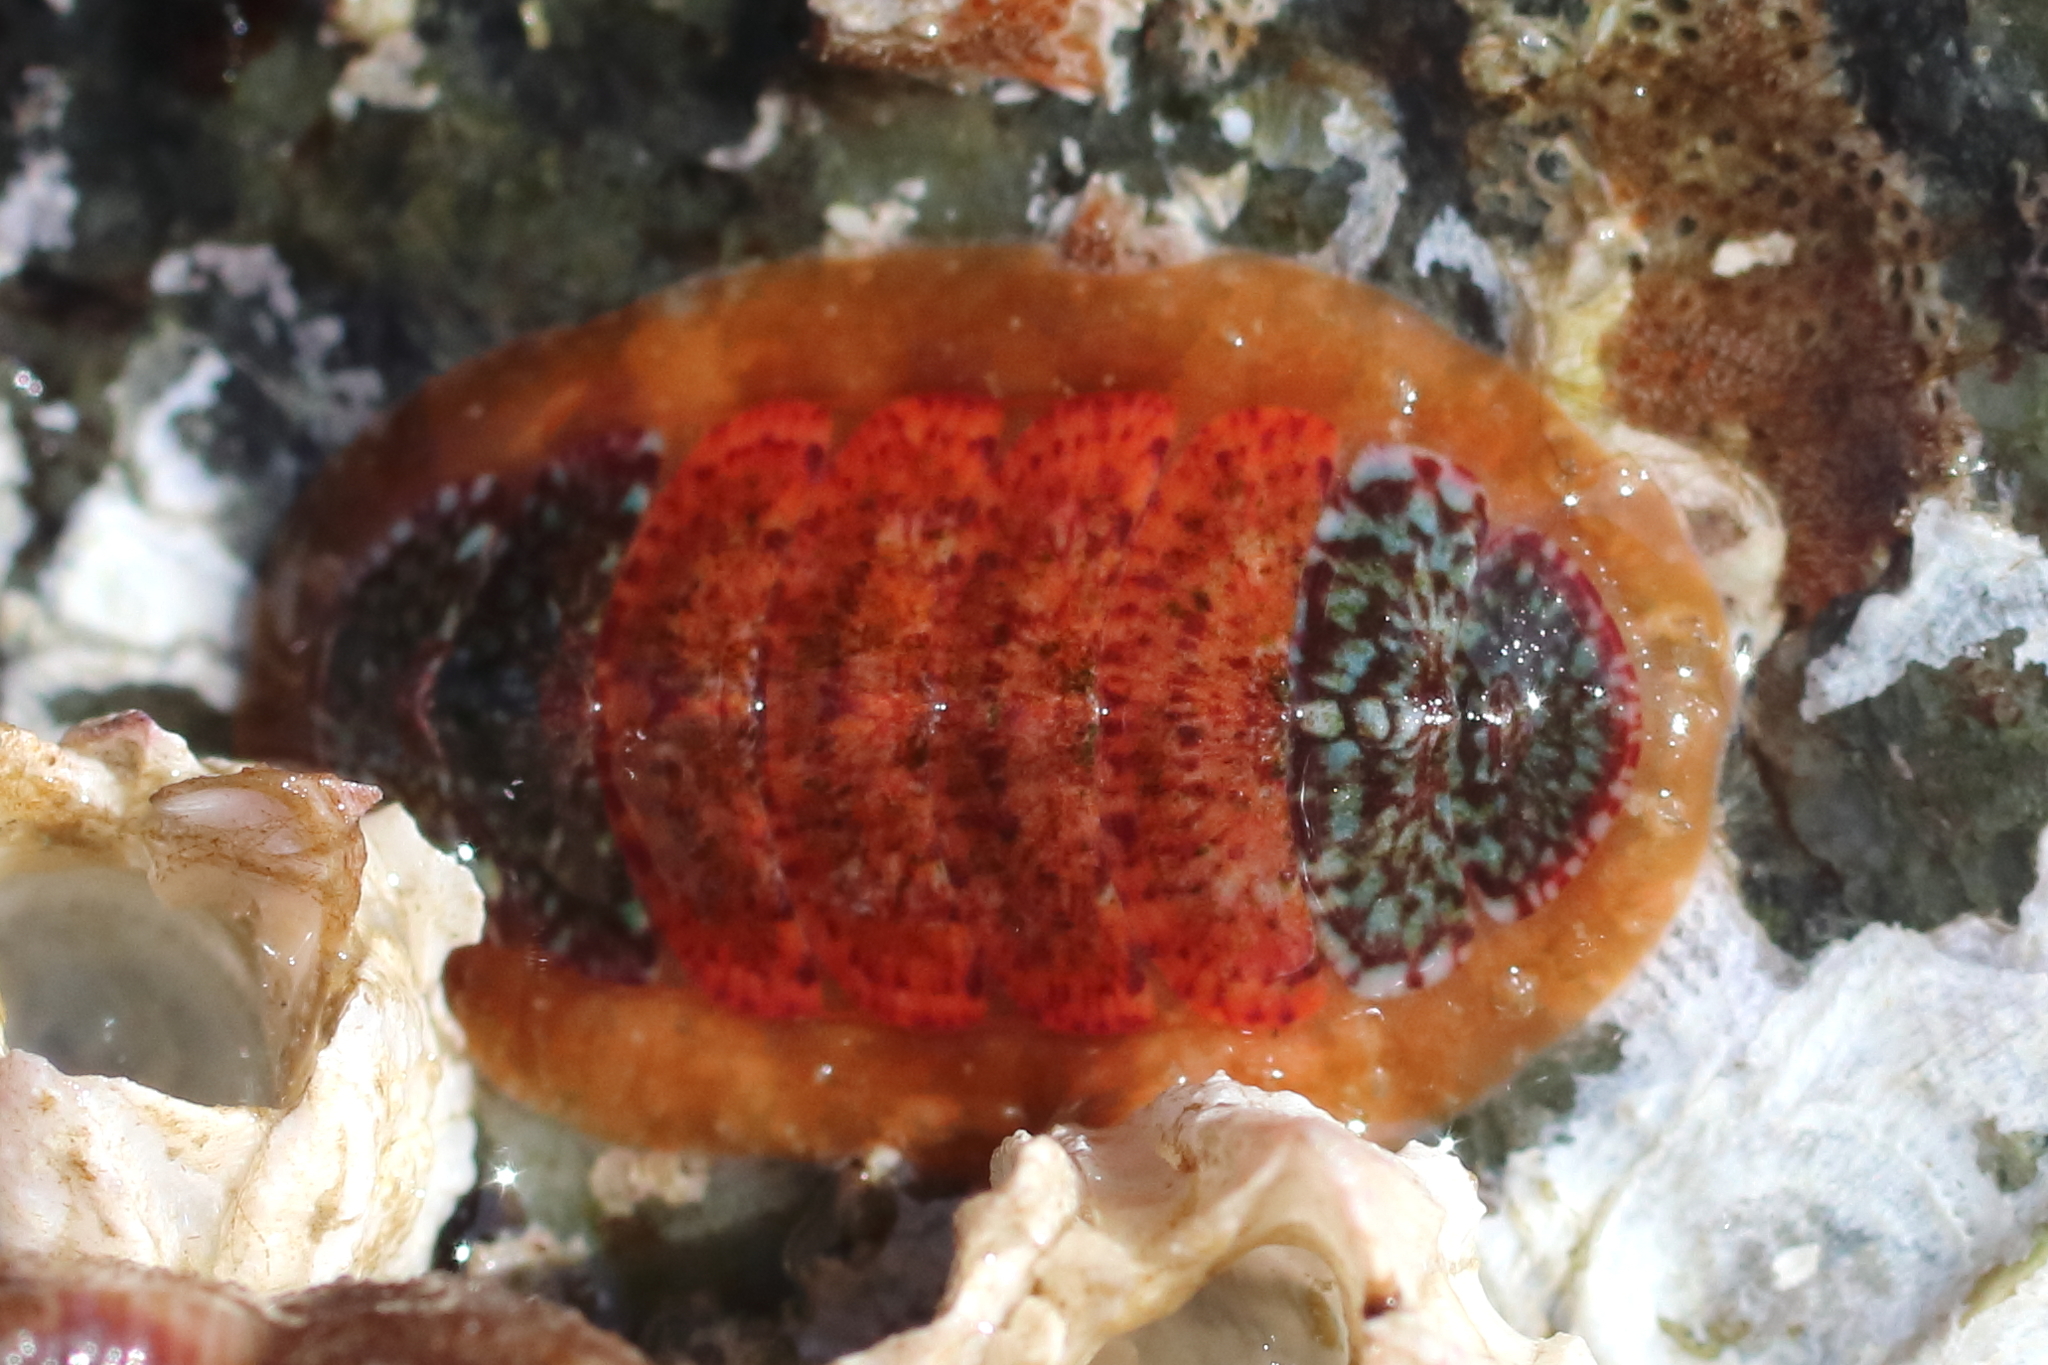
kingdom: Animalia
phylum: Mollusca
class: Polyplacophora
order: Chitonida
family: Mopaliidae
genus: Dendrochiton
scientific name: Dendrochiton flectens
